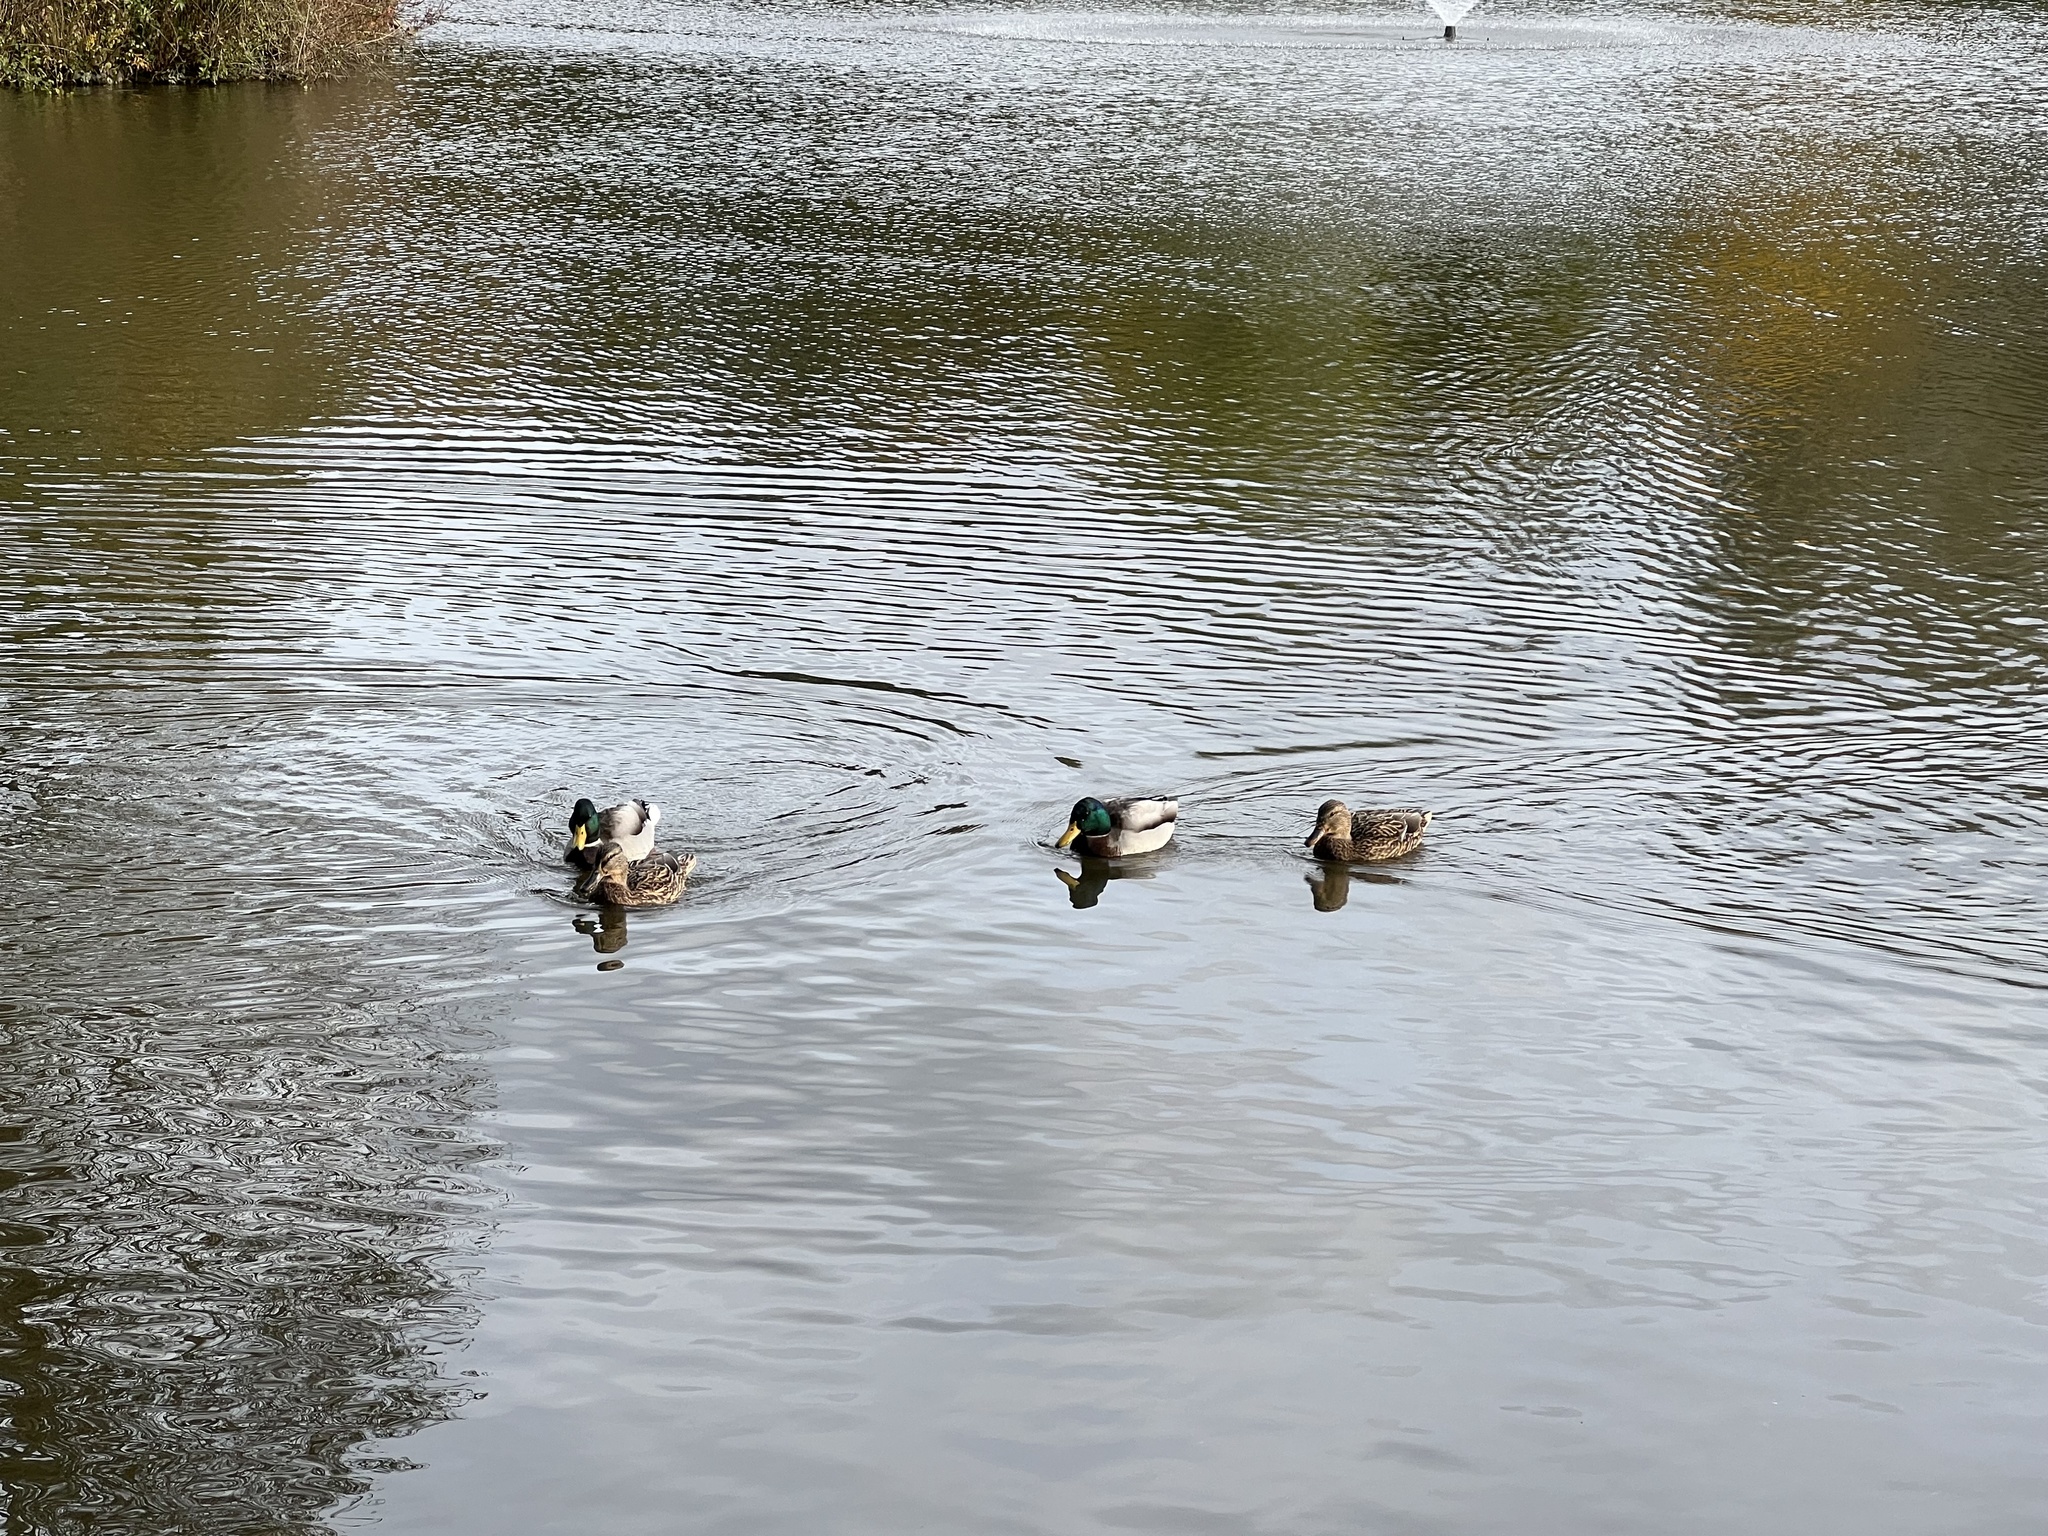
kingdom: Animalia
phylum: Chordata
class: Aves
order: Anseriformes
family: Anatidae
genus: Anas
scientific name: Anas platyrhynchos
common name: Mallard
